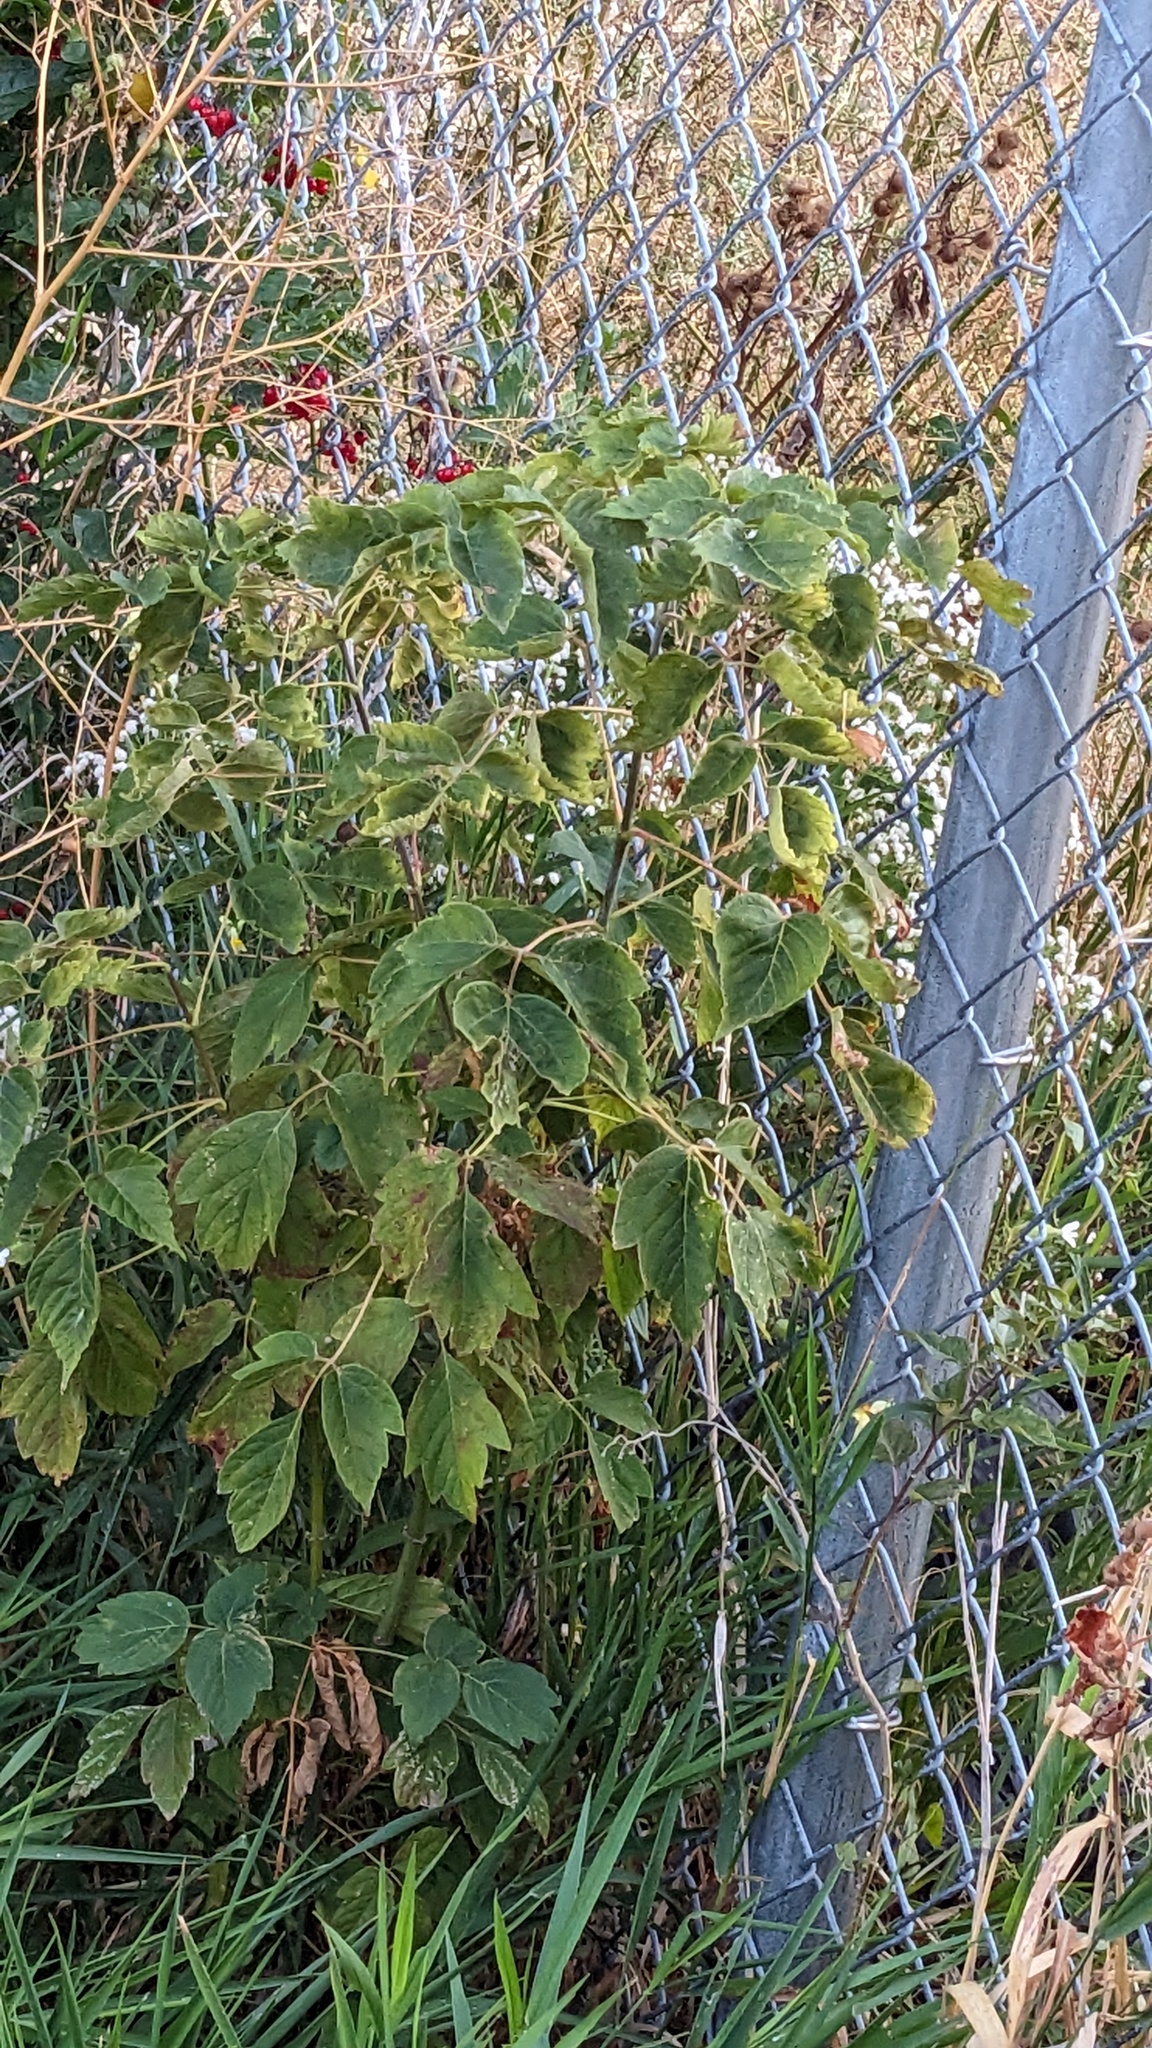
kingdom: Plantae
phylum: Tracheophyta
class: Magnoliopsida
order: Sapindales
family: Sapindaceae
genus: Acer
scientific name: Acer negundo
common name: Ashleaf maple
